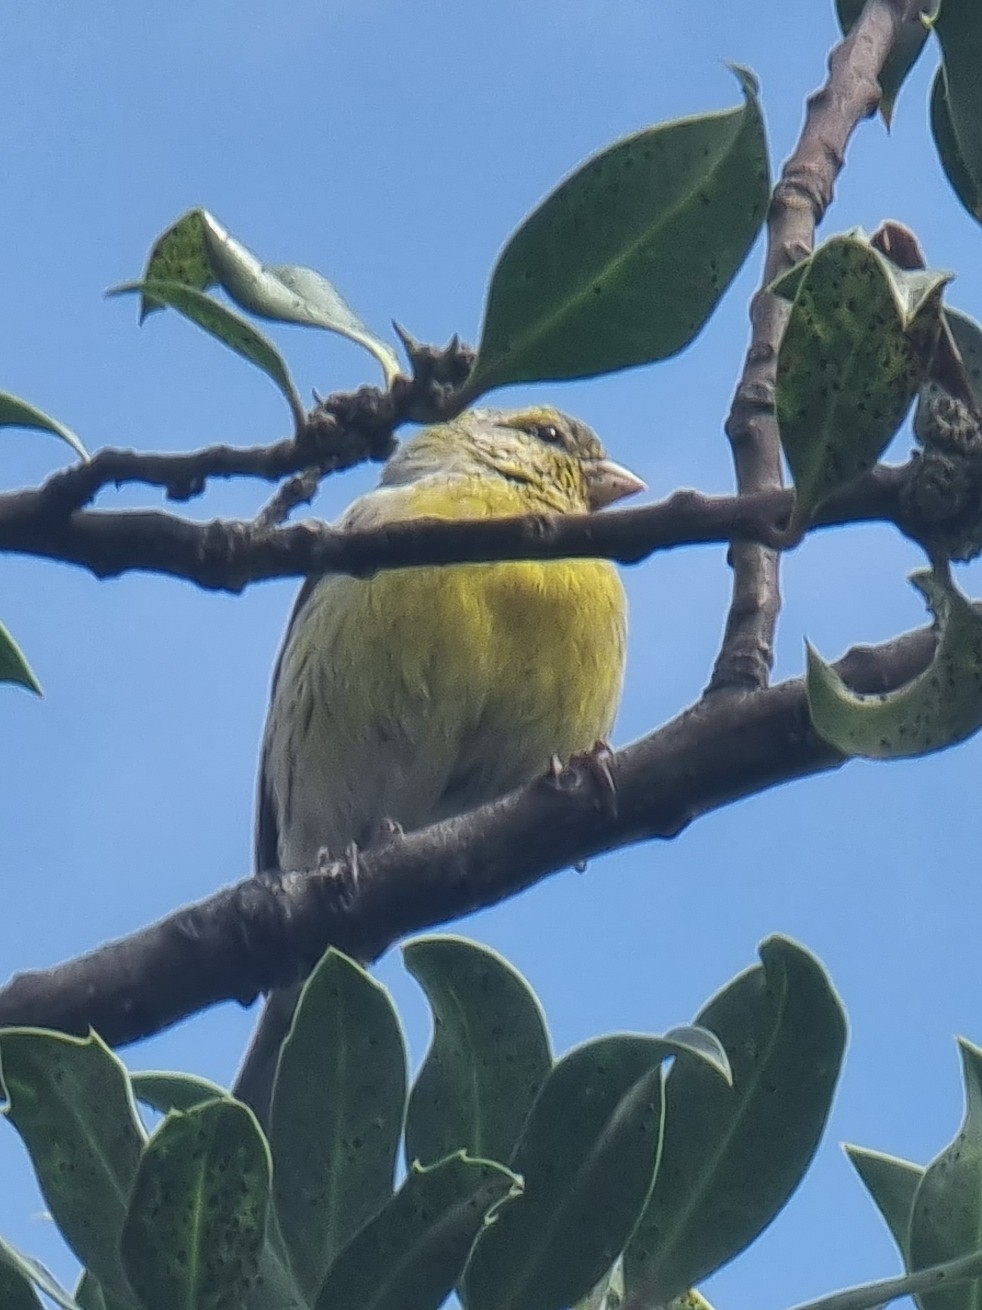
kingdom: Animalia
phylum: Chordata
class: Aves
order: Passeriformes
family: Fringillidae
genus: Serinus
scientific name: Serinus canaria
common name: Atlantic canary
